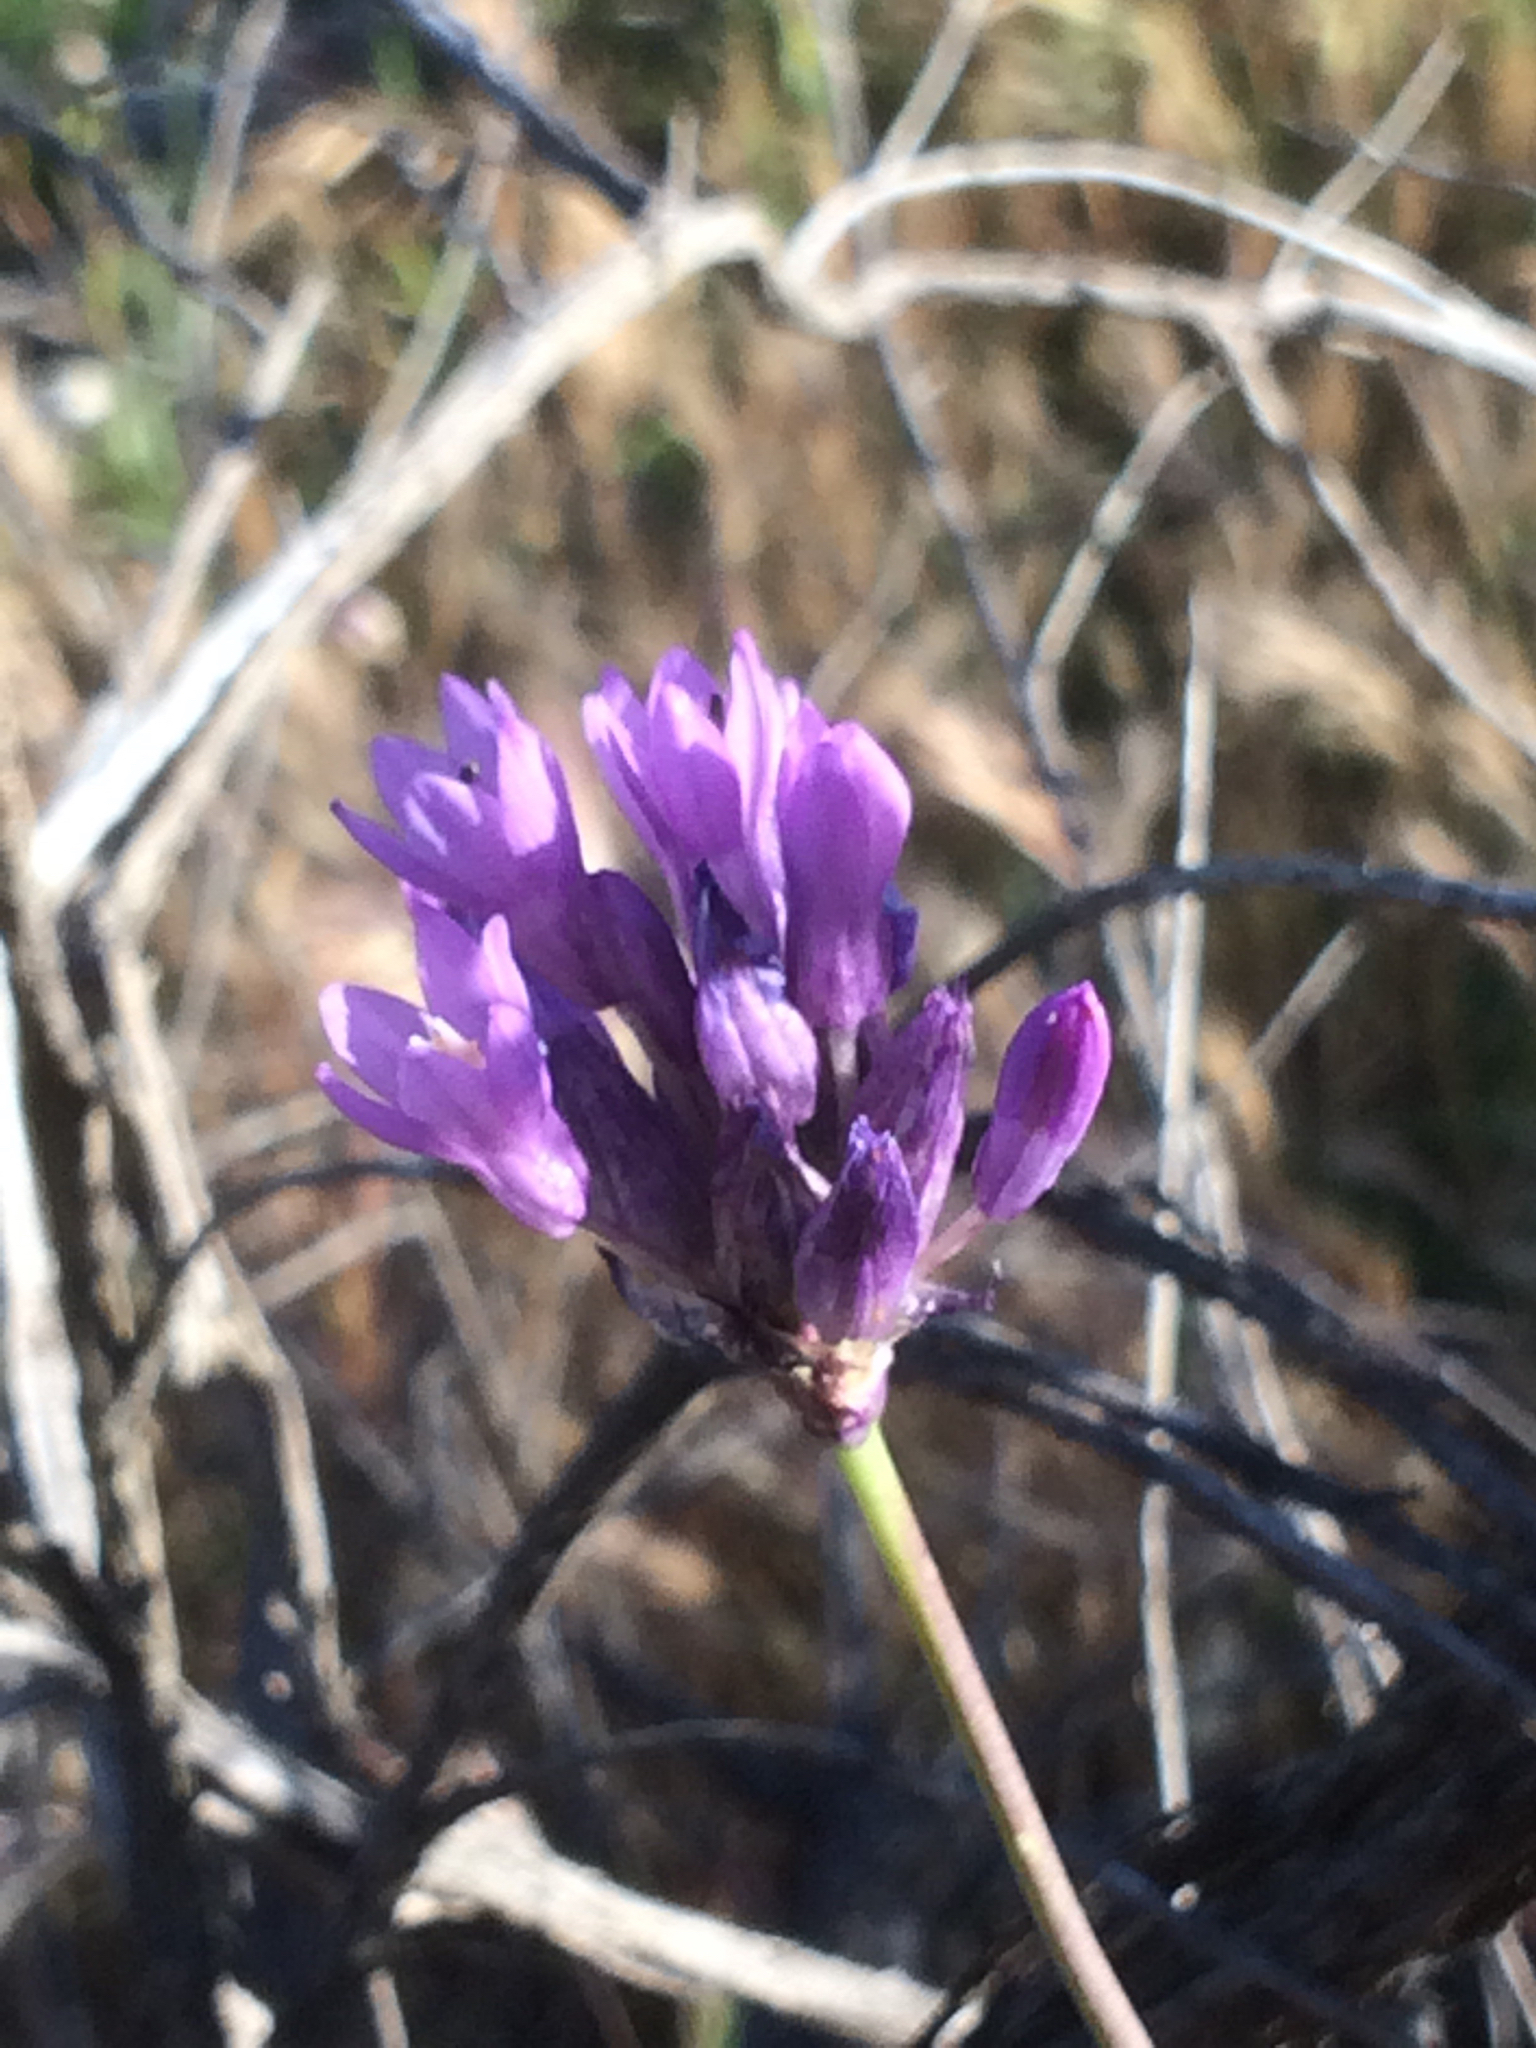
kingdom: Plantae
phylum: Tracheophyta
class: Liliopsida
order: Asparagales
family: Asparagaceae
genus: Dipterostemon
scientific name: Dipterostemon capitatus
